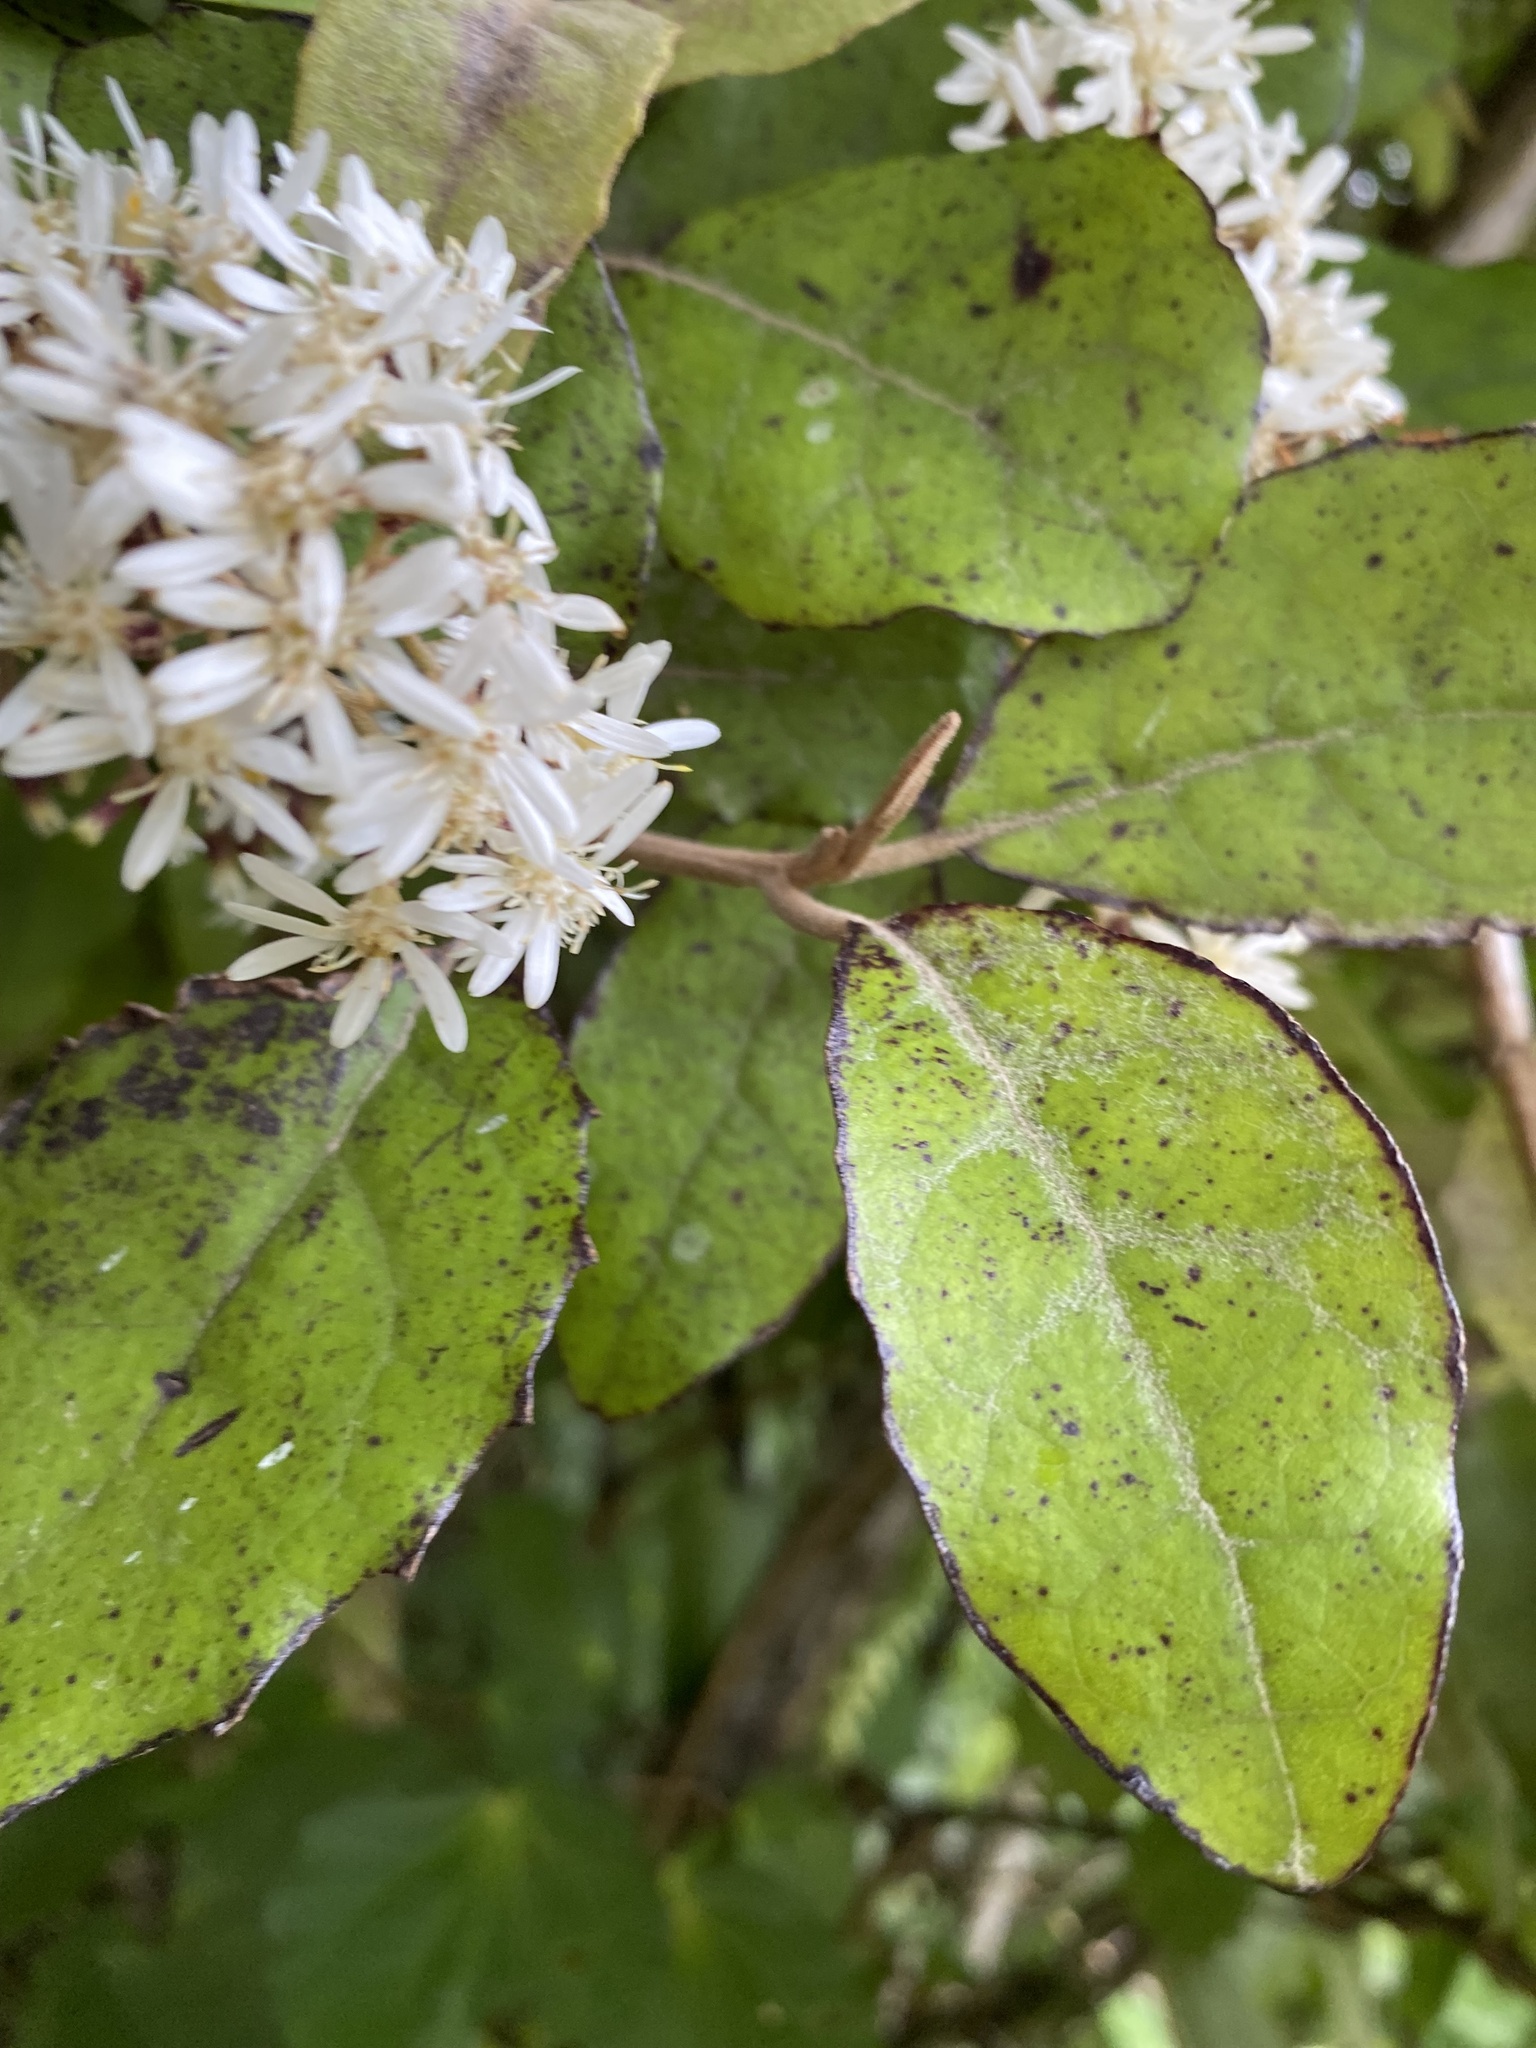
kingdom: Plantae
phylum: Tracheophyta
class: Magnoliopsida
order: Asterales
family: Asteraceae
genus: Olearia
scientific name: Olearia rani
